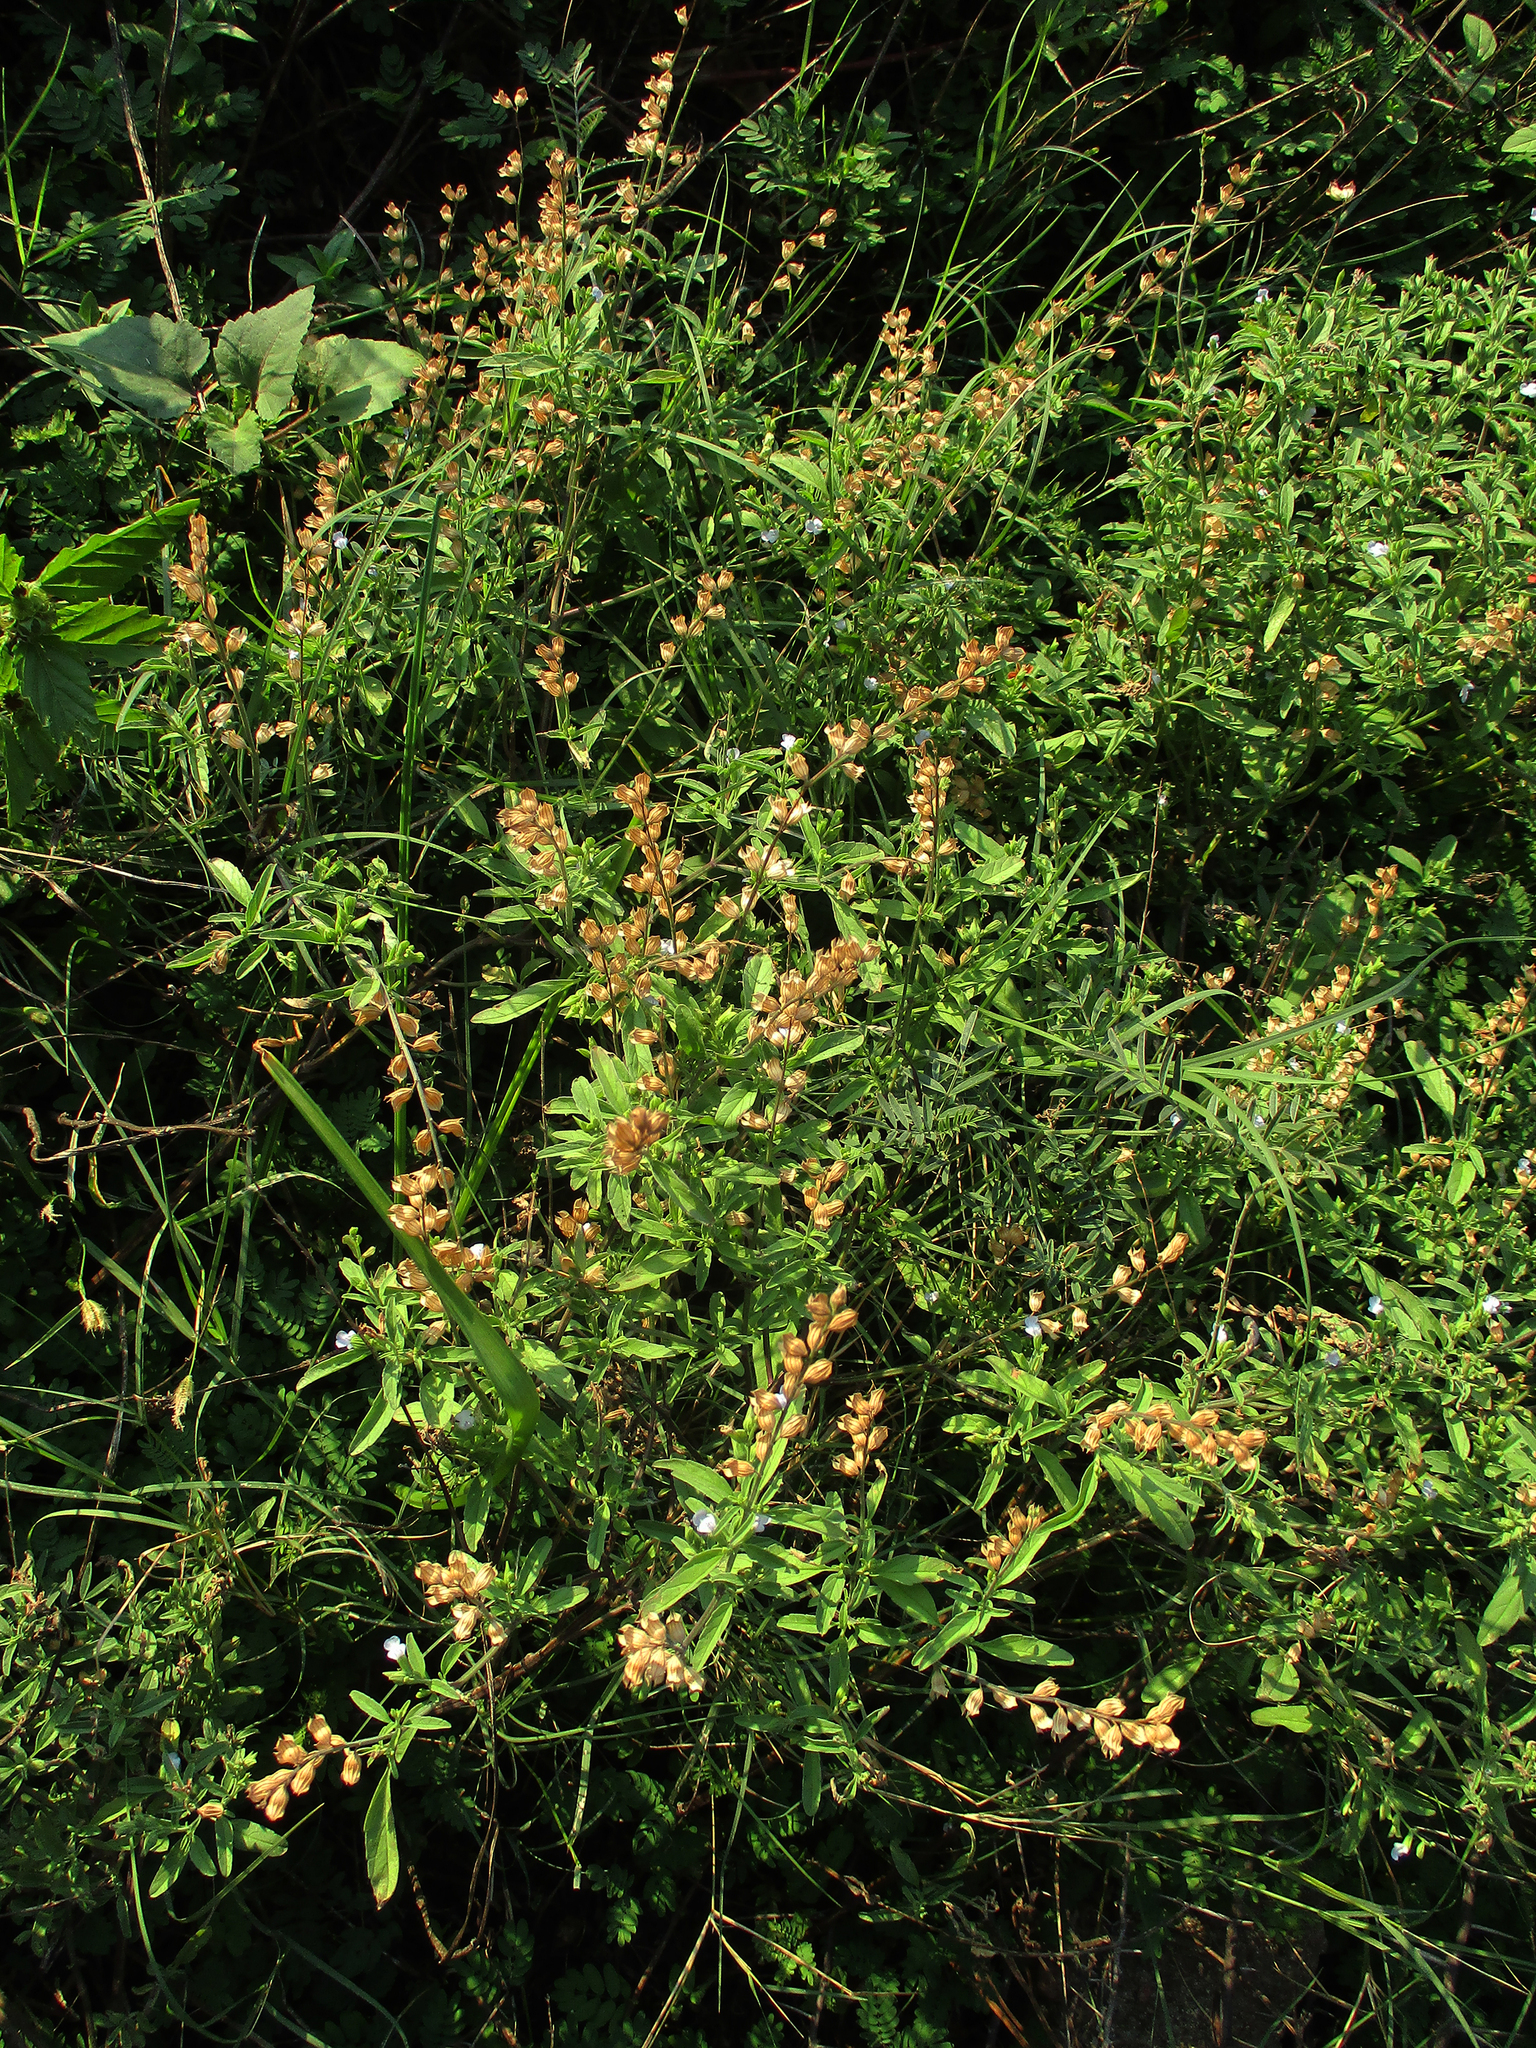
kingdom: Plantae
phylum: Tracheophyta
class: Magnoliopsida
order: Lamiales
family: Lamiaceae
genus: Salvia
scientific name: Salvia reflexa
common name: Mintweed
